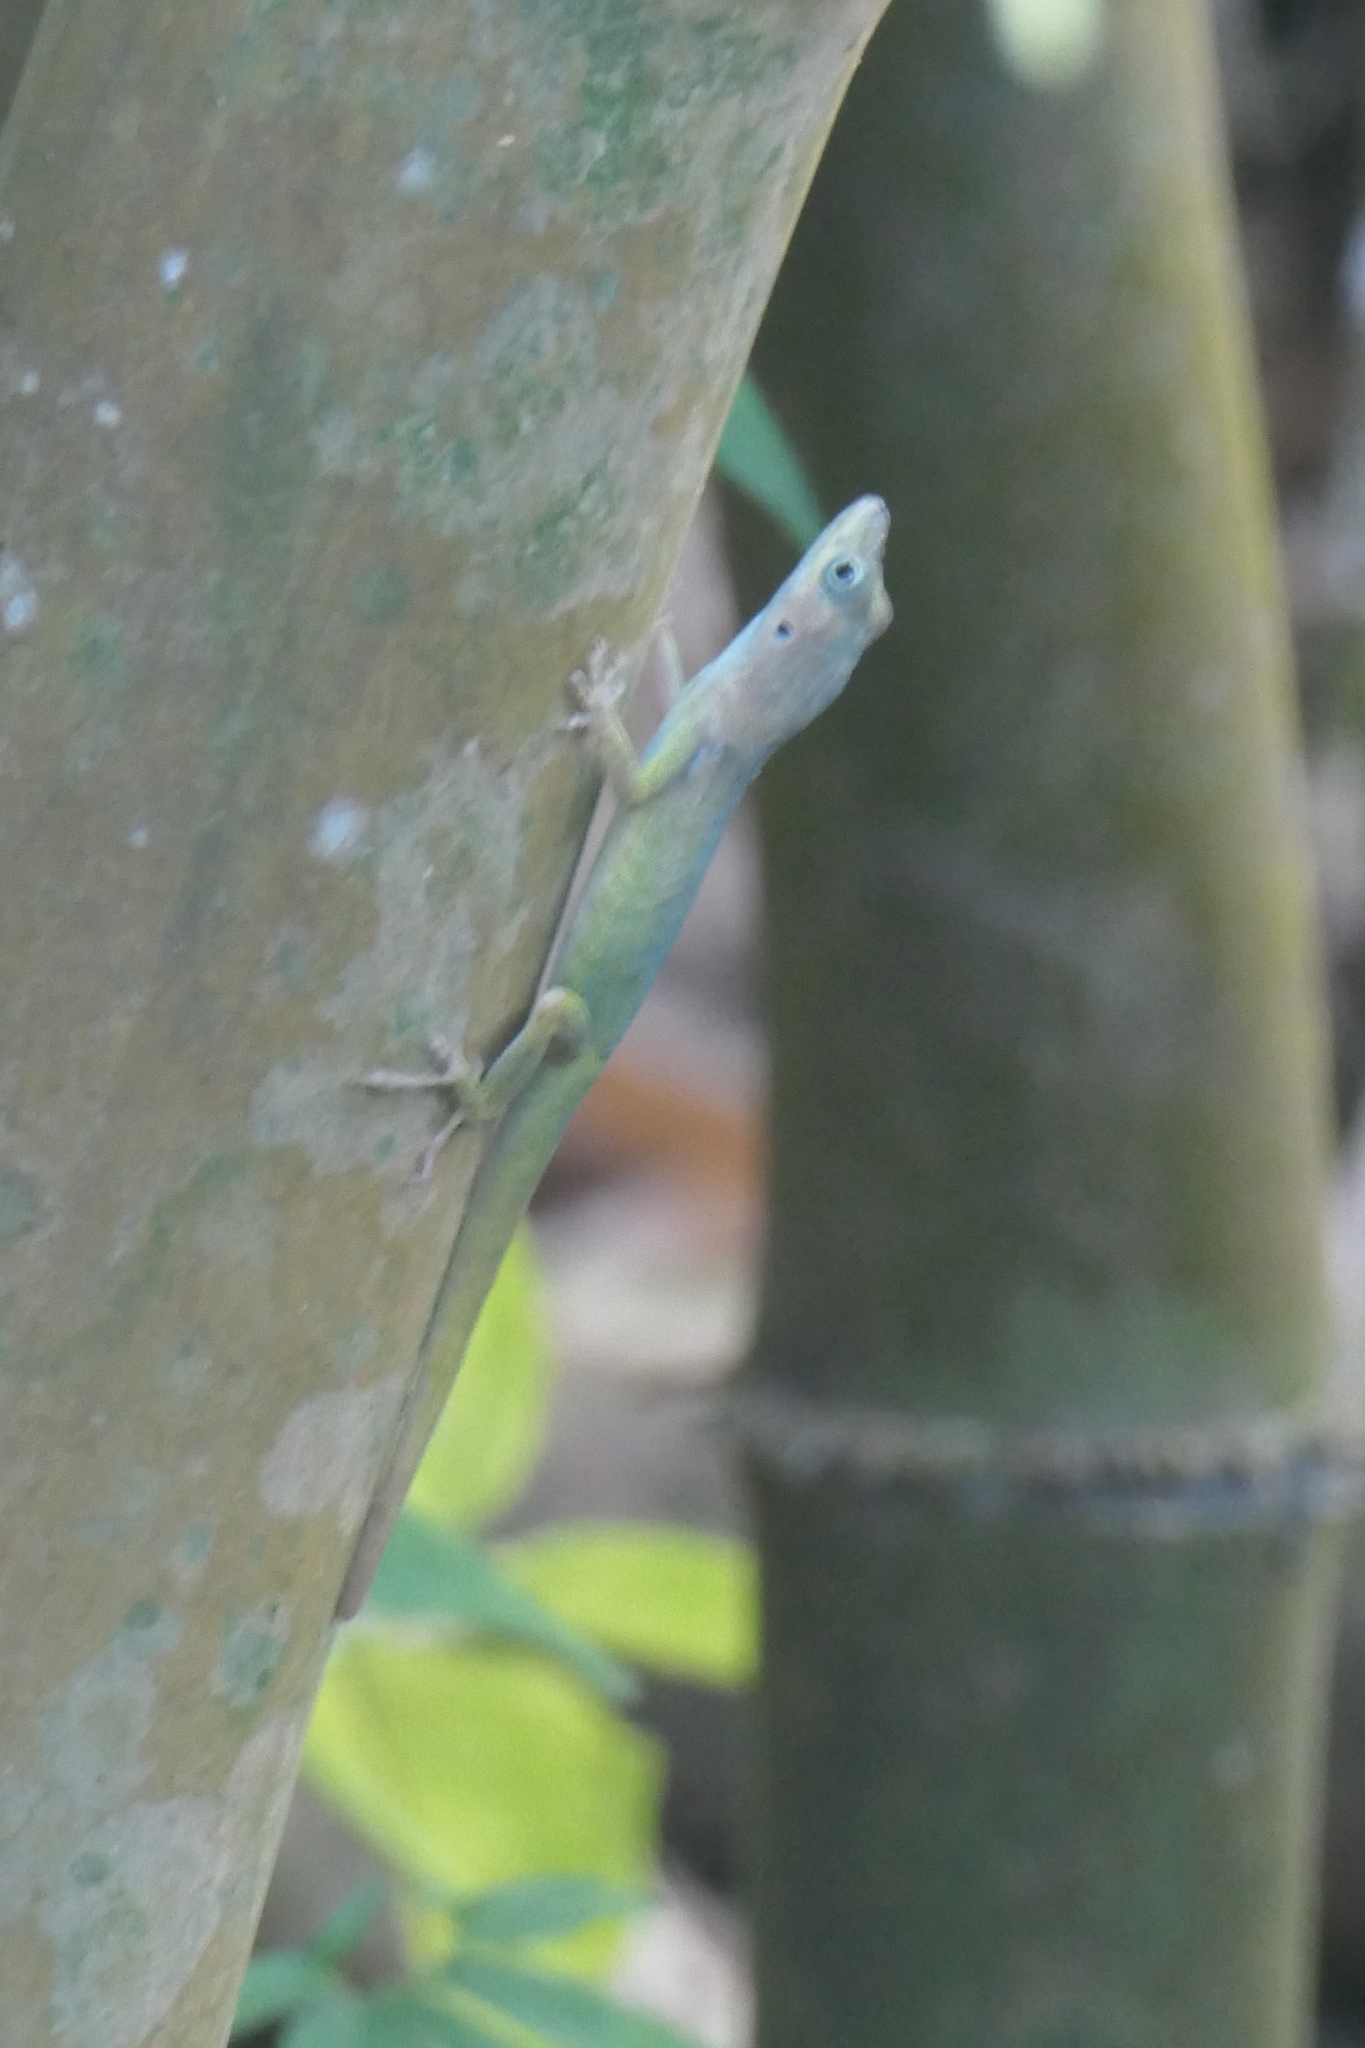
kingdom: Animalia
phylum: Chordata
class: Squamata
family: Dactyloidae
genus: Anolis
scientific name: Anolis roquet
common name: Martinique anole
